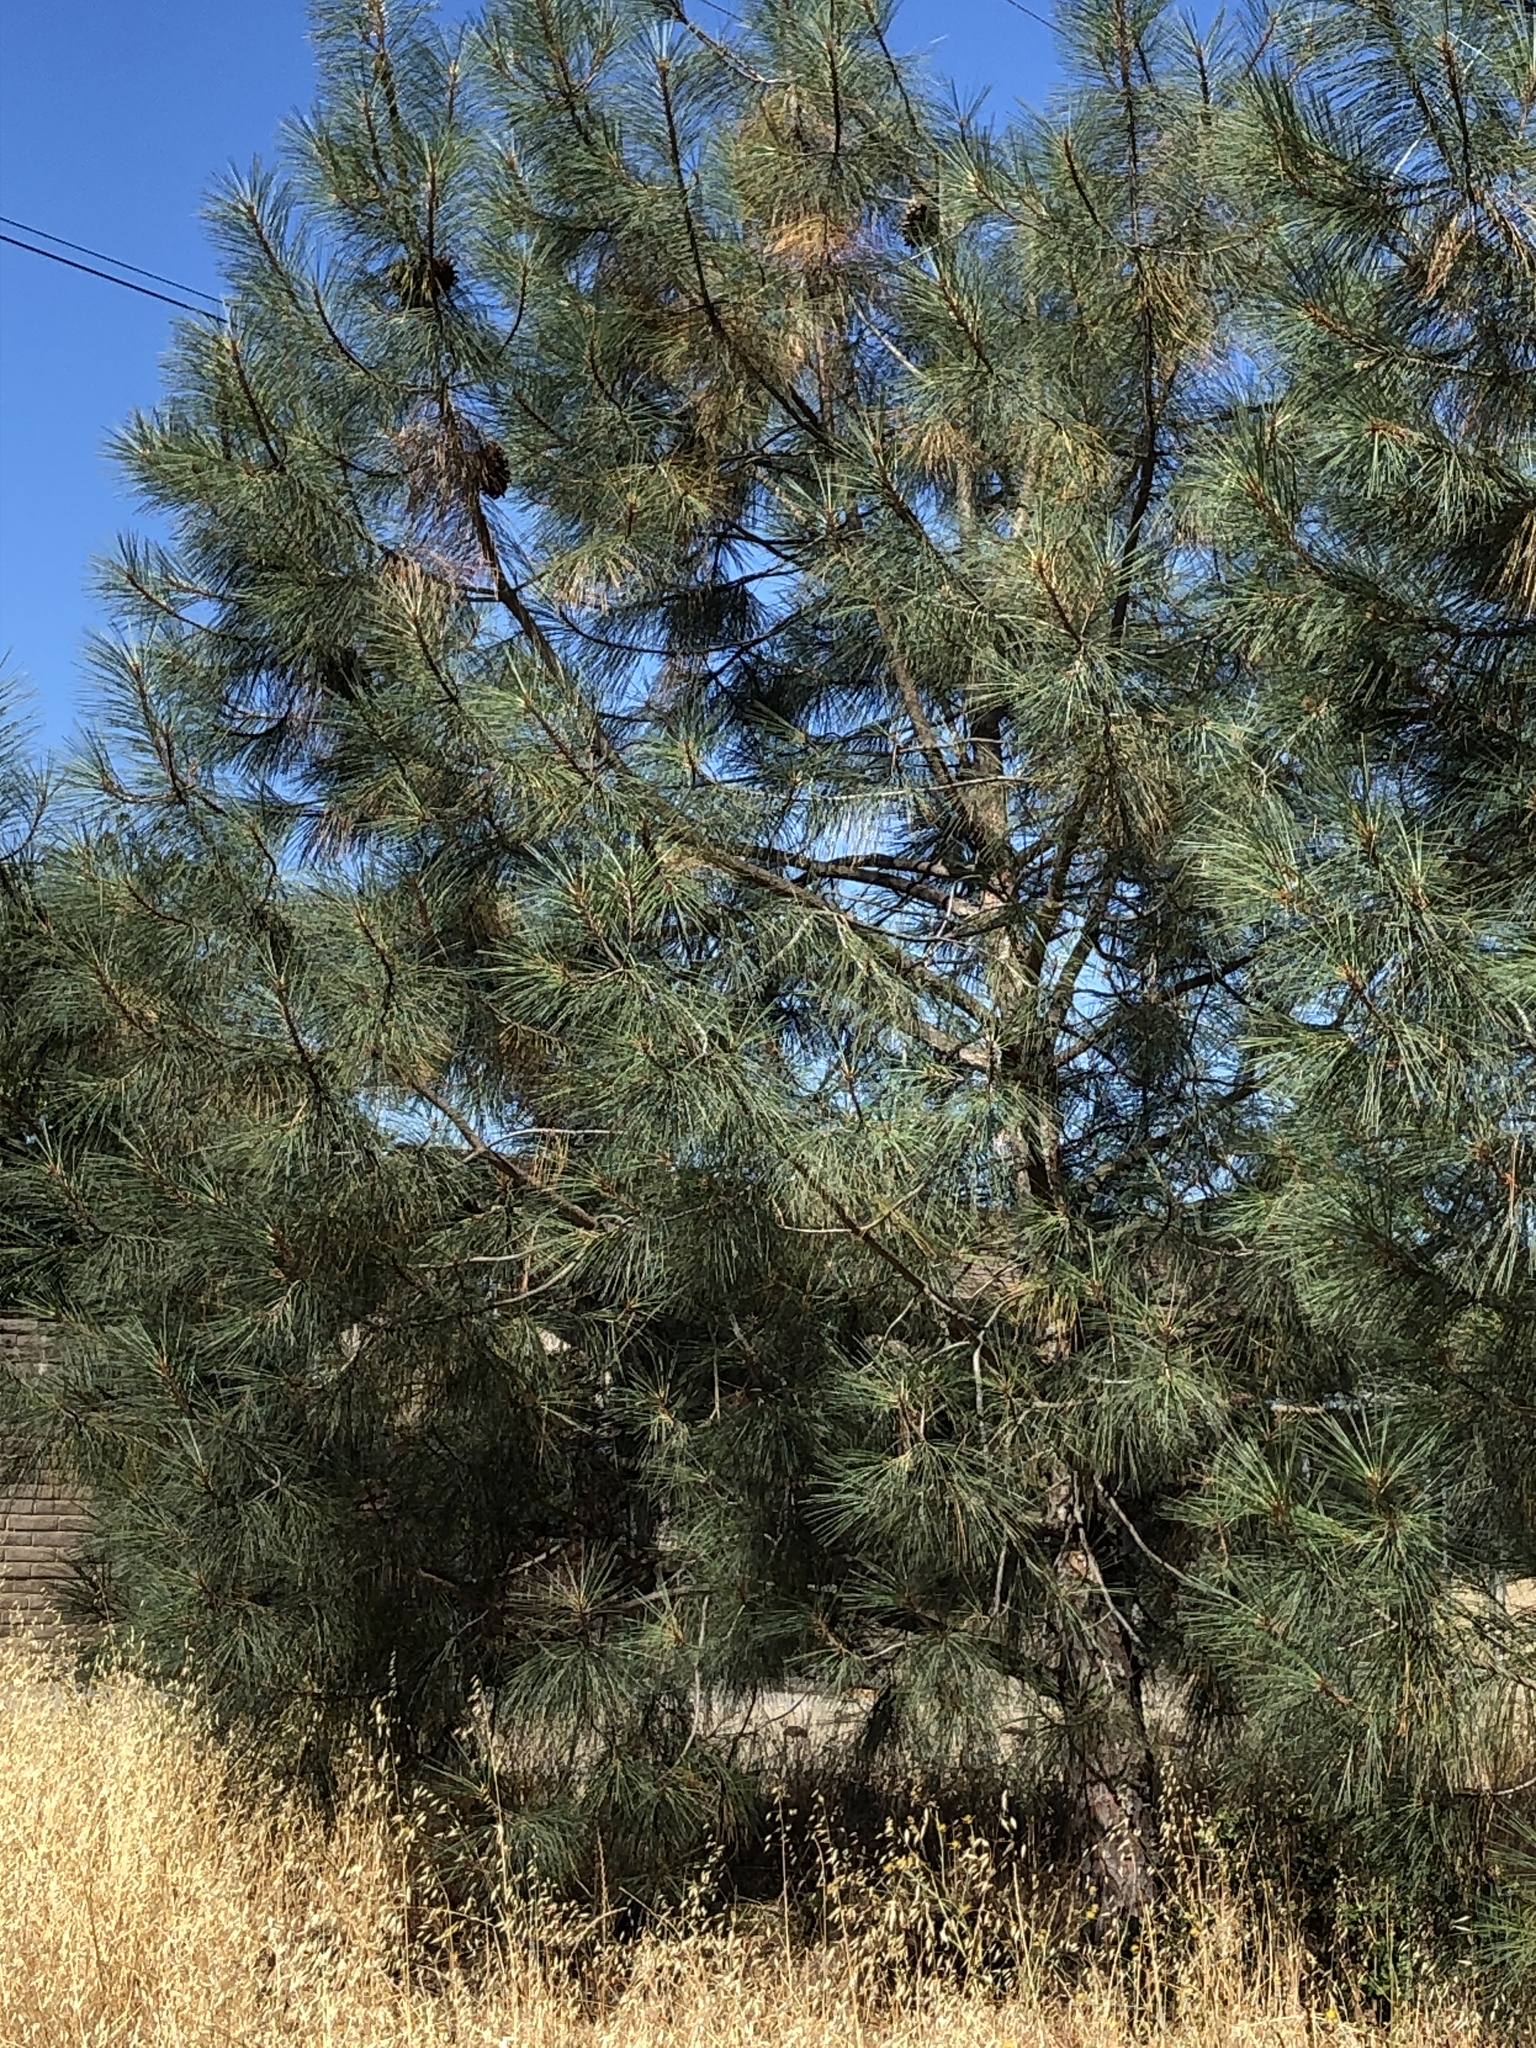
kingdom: Plantae
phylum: Tracheophyta
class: Pinopsida
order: Pinales
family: Pinaceae
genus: Pinus
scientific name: Pinus sabiniana
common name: Bull pine
